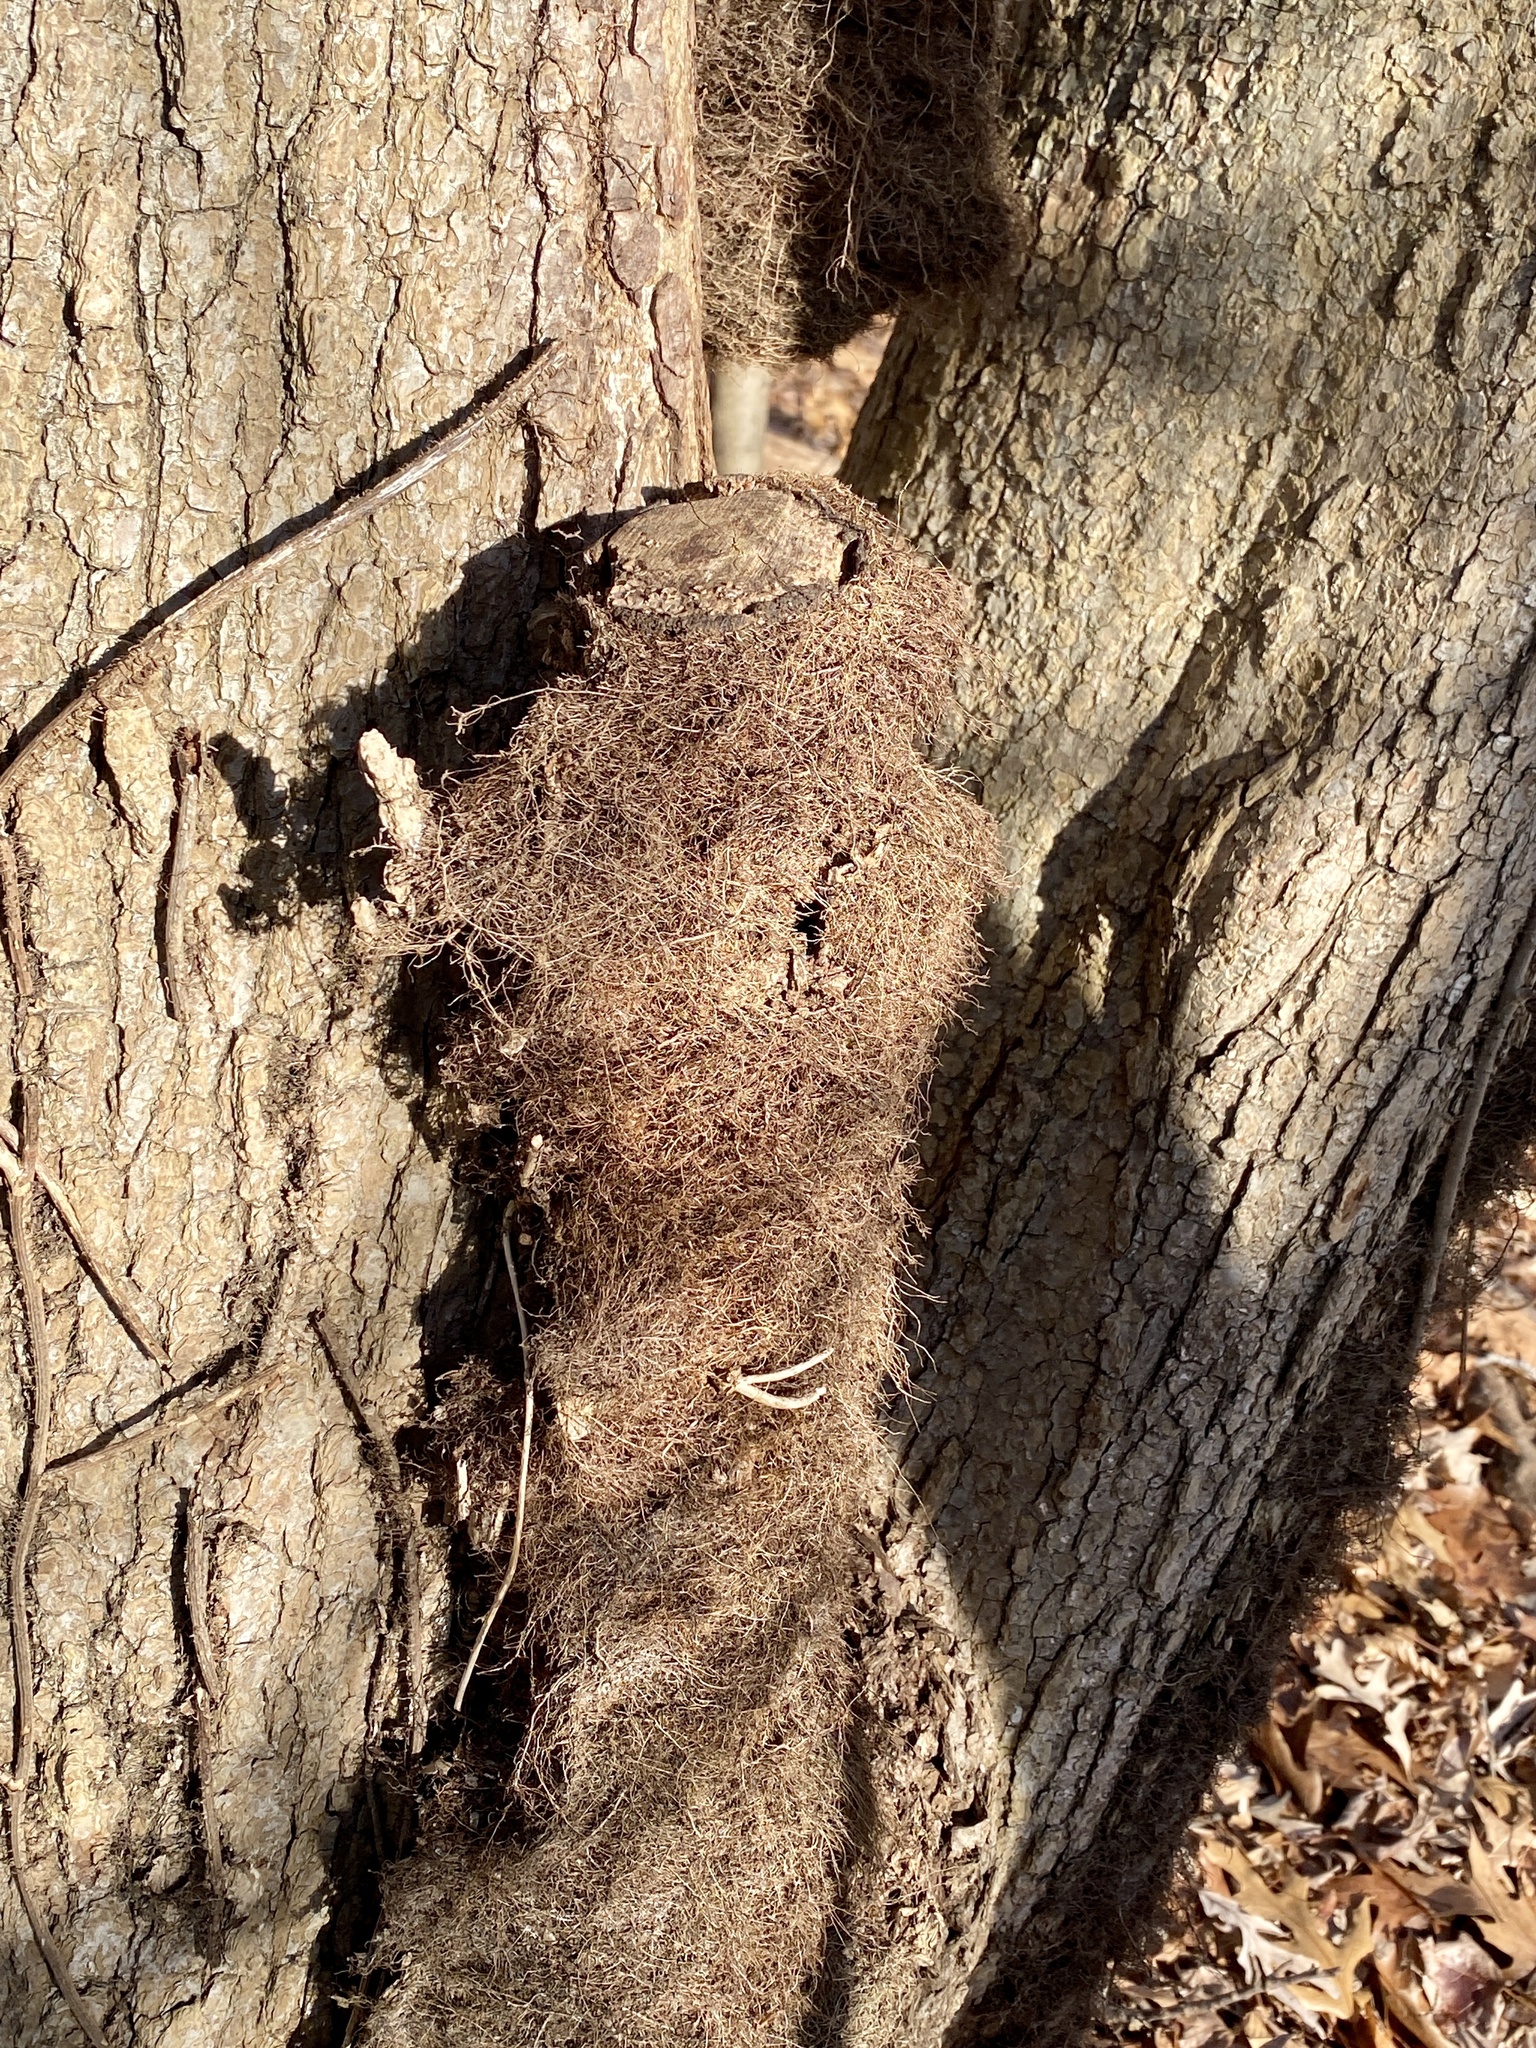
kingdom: Plantae
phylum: Tracheophyta
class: Magnoliopsida
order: Sapindales
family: Anacardiaceae
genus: Toxicodendron
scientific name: Toxicodendron radicans
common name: Poison ivy
